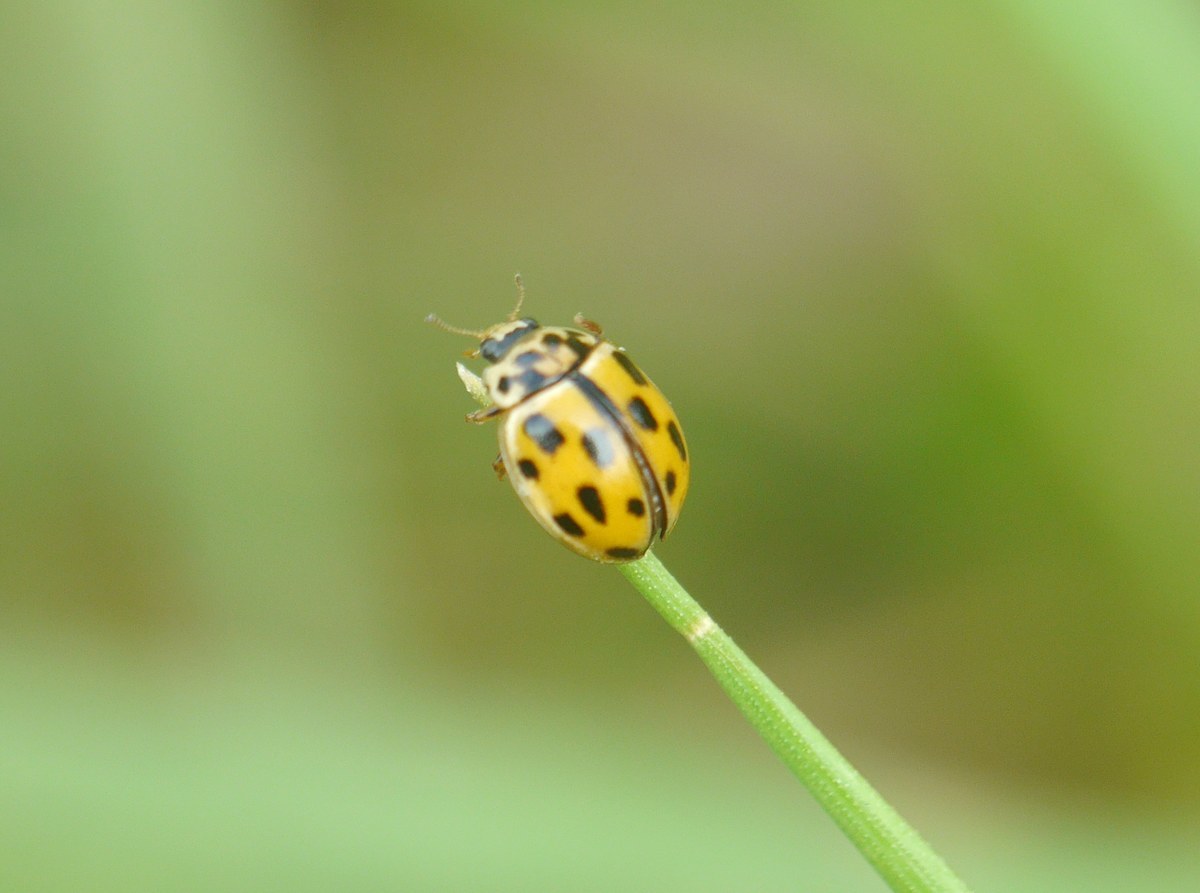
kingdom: Animalia
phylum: Arthropoda
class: Insecta
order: Coleoptera
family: Coccinellidae
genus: Propylaea
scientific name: Propylaea quatuordecimpunctata
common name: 14-spotted ladybird beetle
